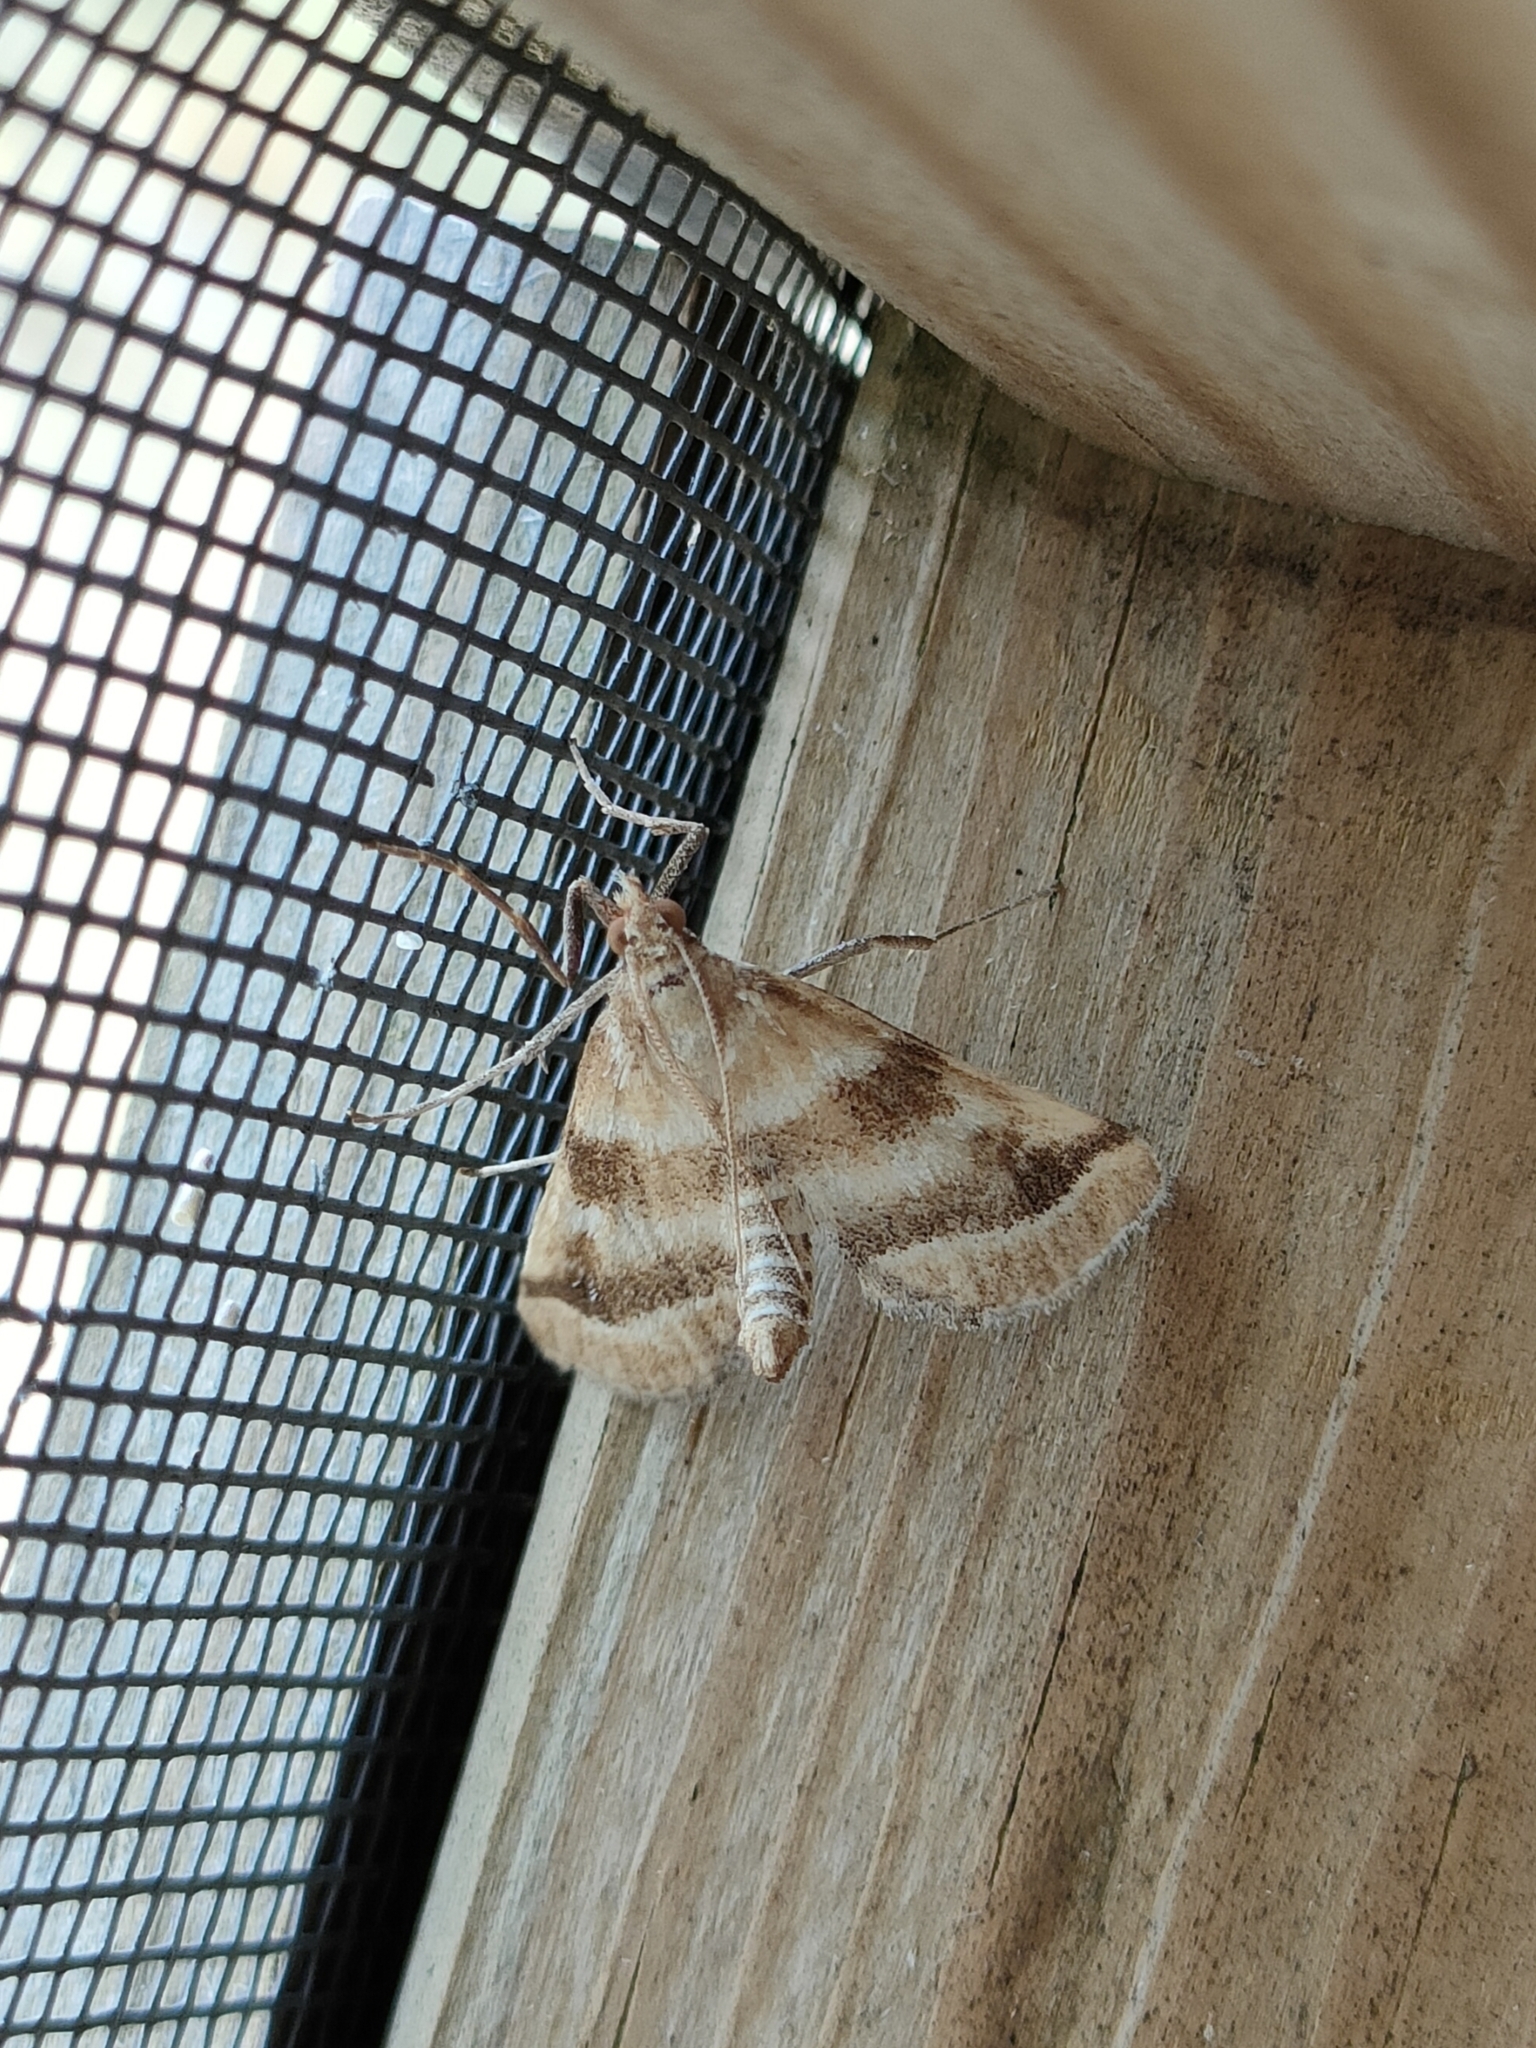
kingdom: Animalia
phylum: Arthropoda
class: Insecta
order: Lepidoptera
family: Crambidae
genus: Metasia
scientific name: Metasia suppandalis
